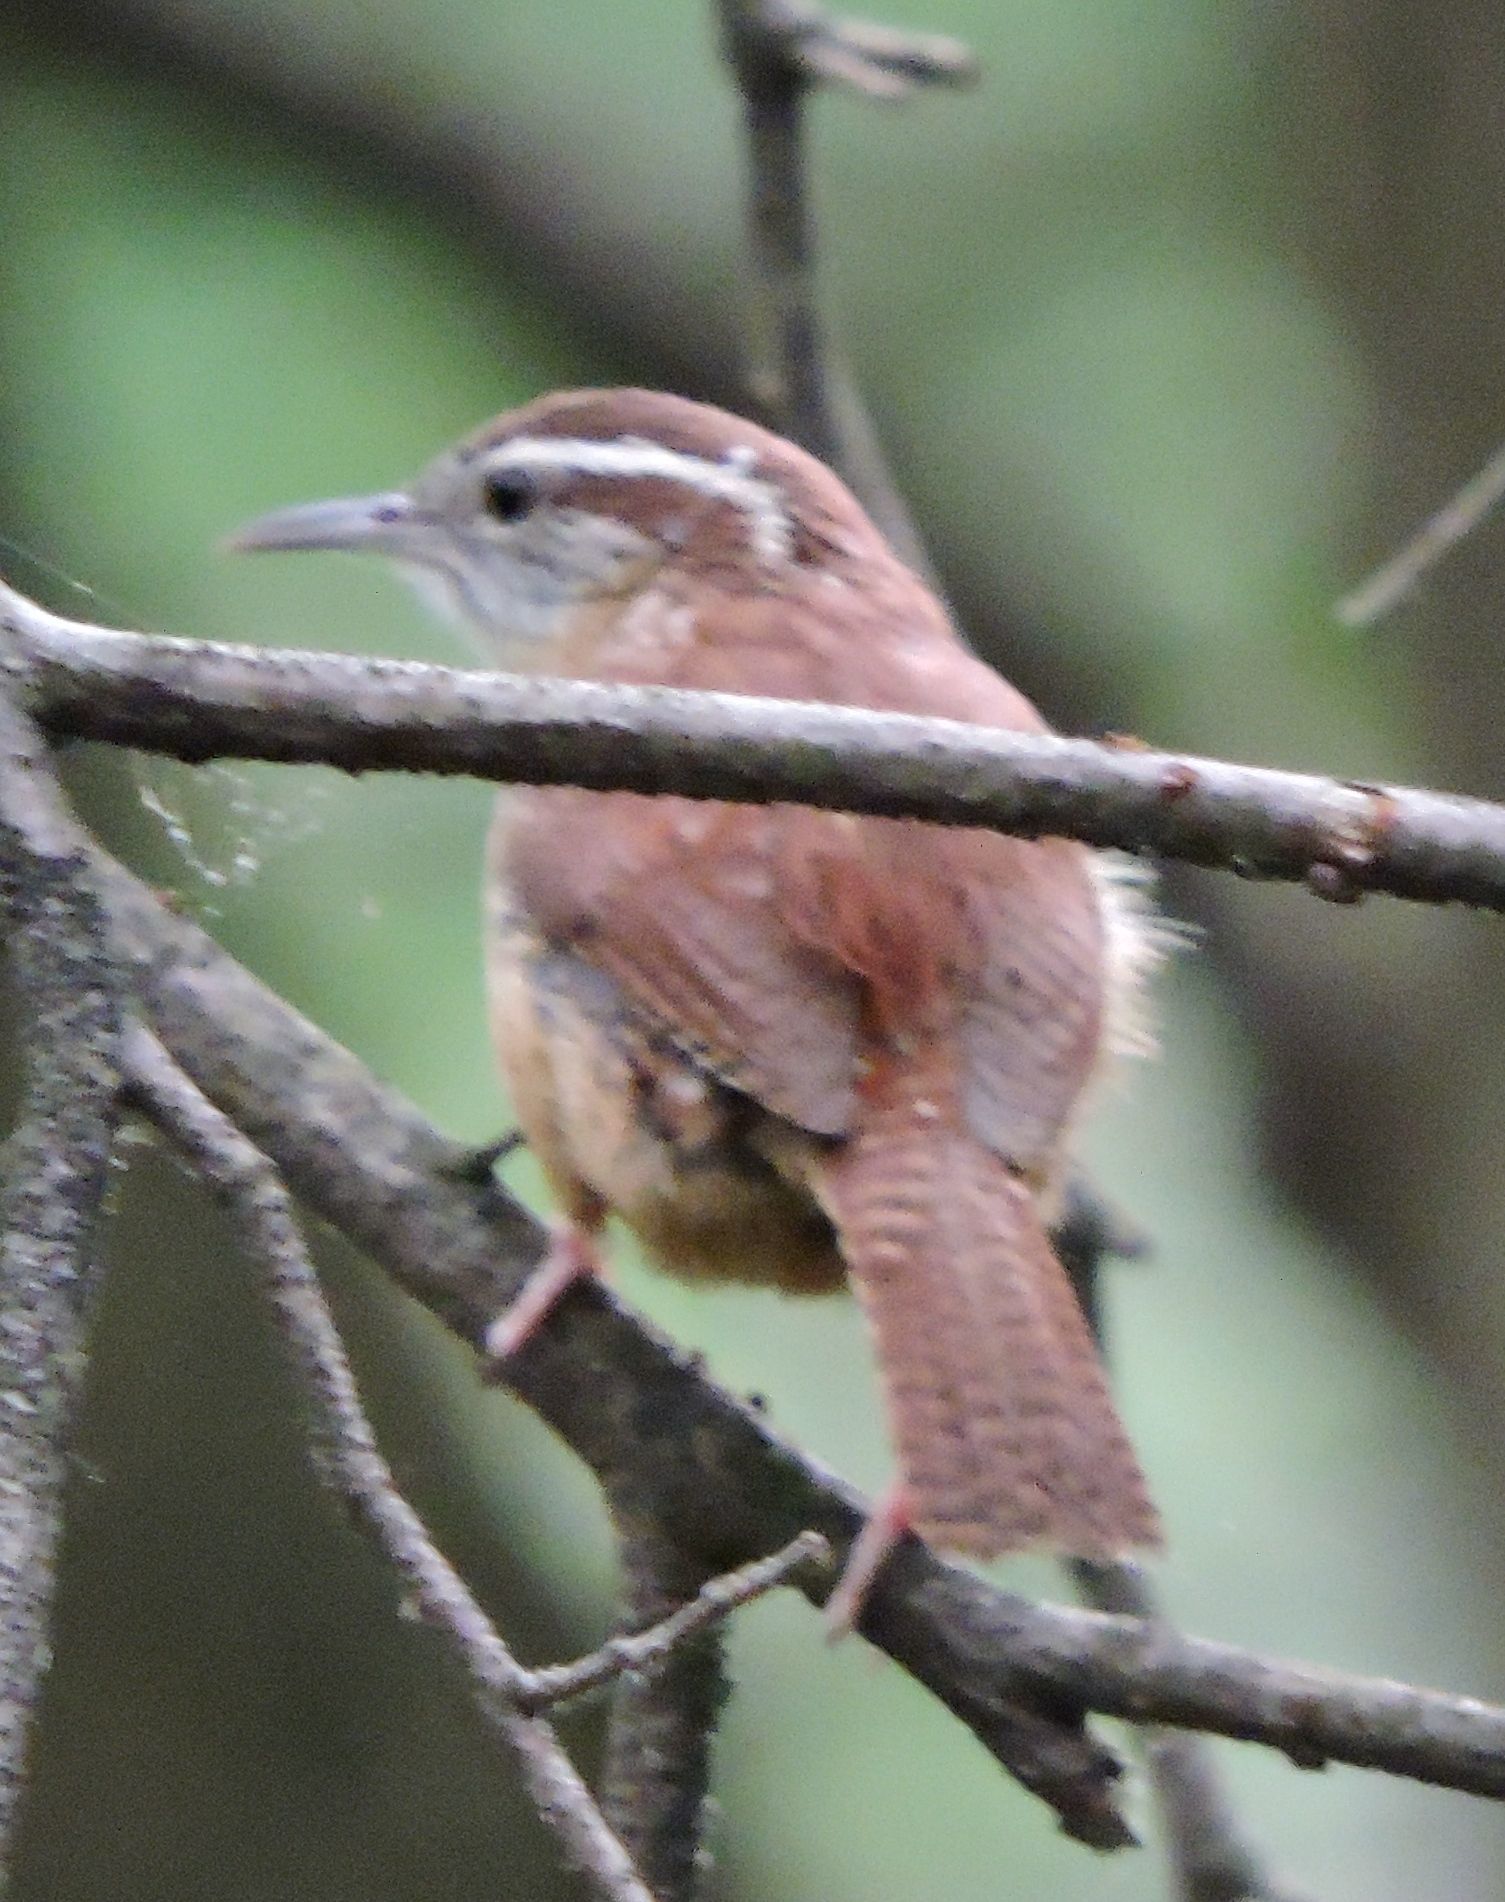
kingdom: Animalia
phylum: Chordata
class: Aves
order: Passeriformes
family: Troglodytidae
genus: Thryothorus
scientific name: Thryothorus ludovicianus
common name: Carolina wren
